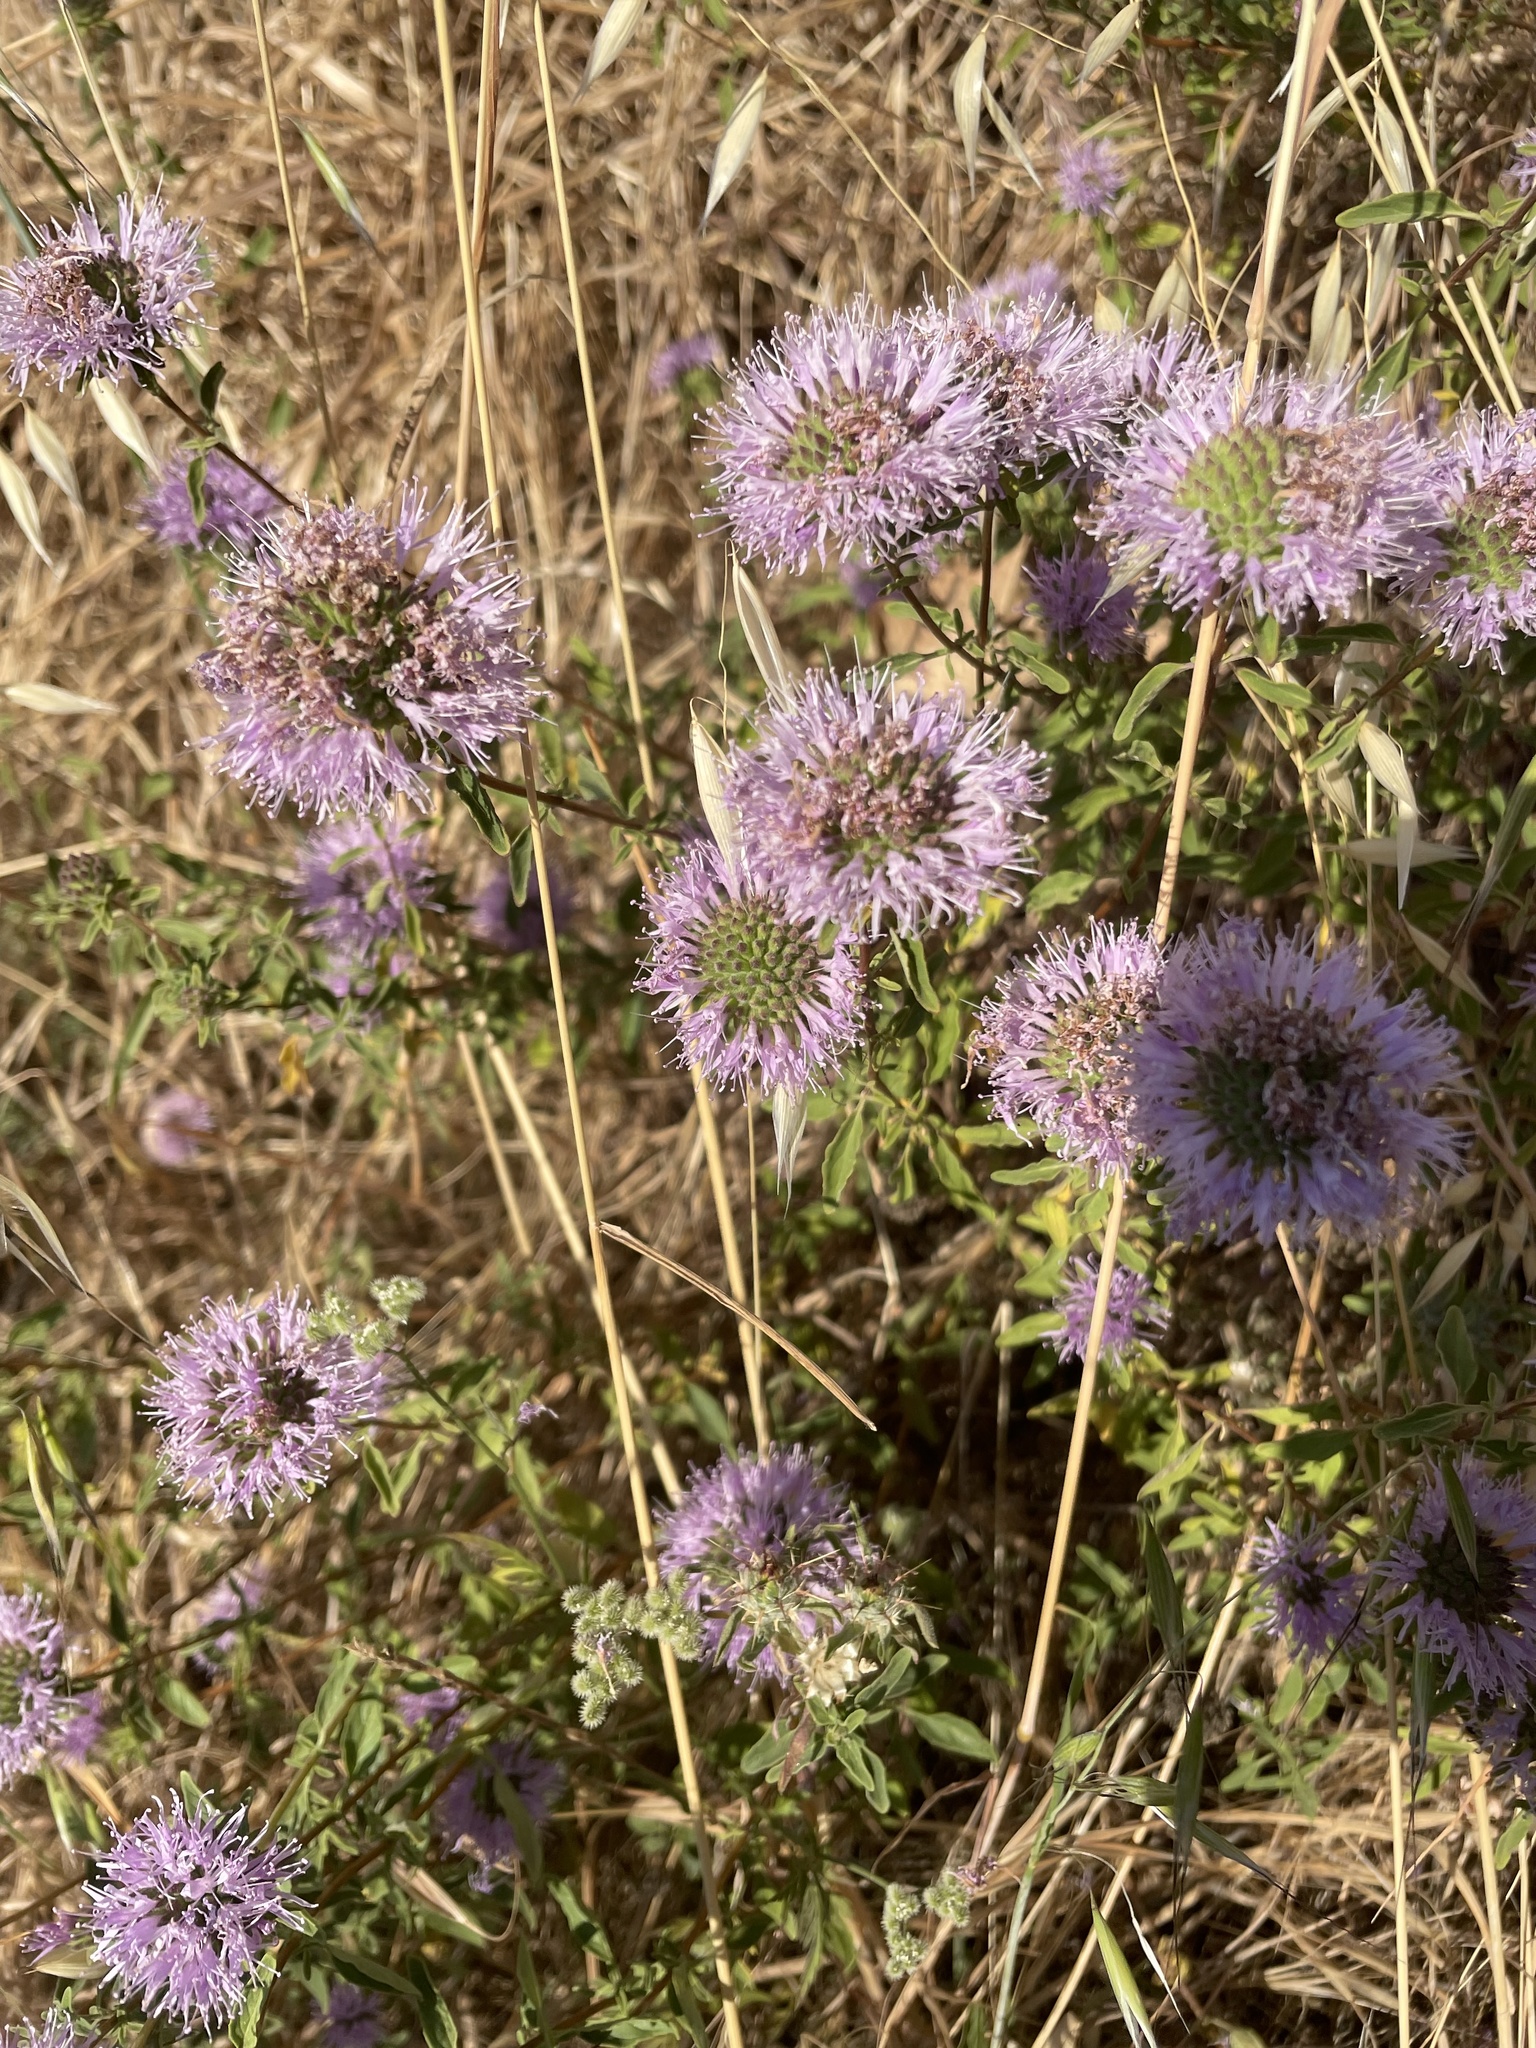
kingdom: Plantae
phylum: Tracheophyta
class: Magnoliopsida
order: Lamiales
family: Lamiaceae
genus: Monardella
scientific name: Monardella odoratissima
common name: Pacific monardella
